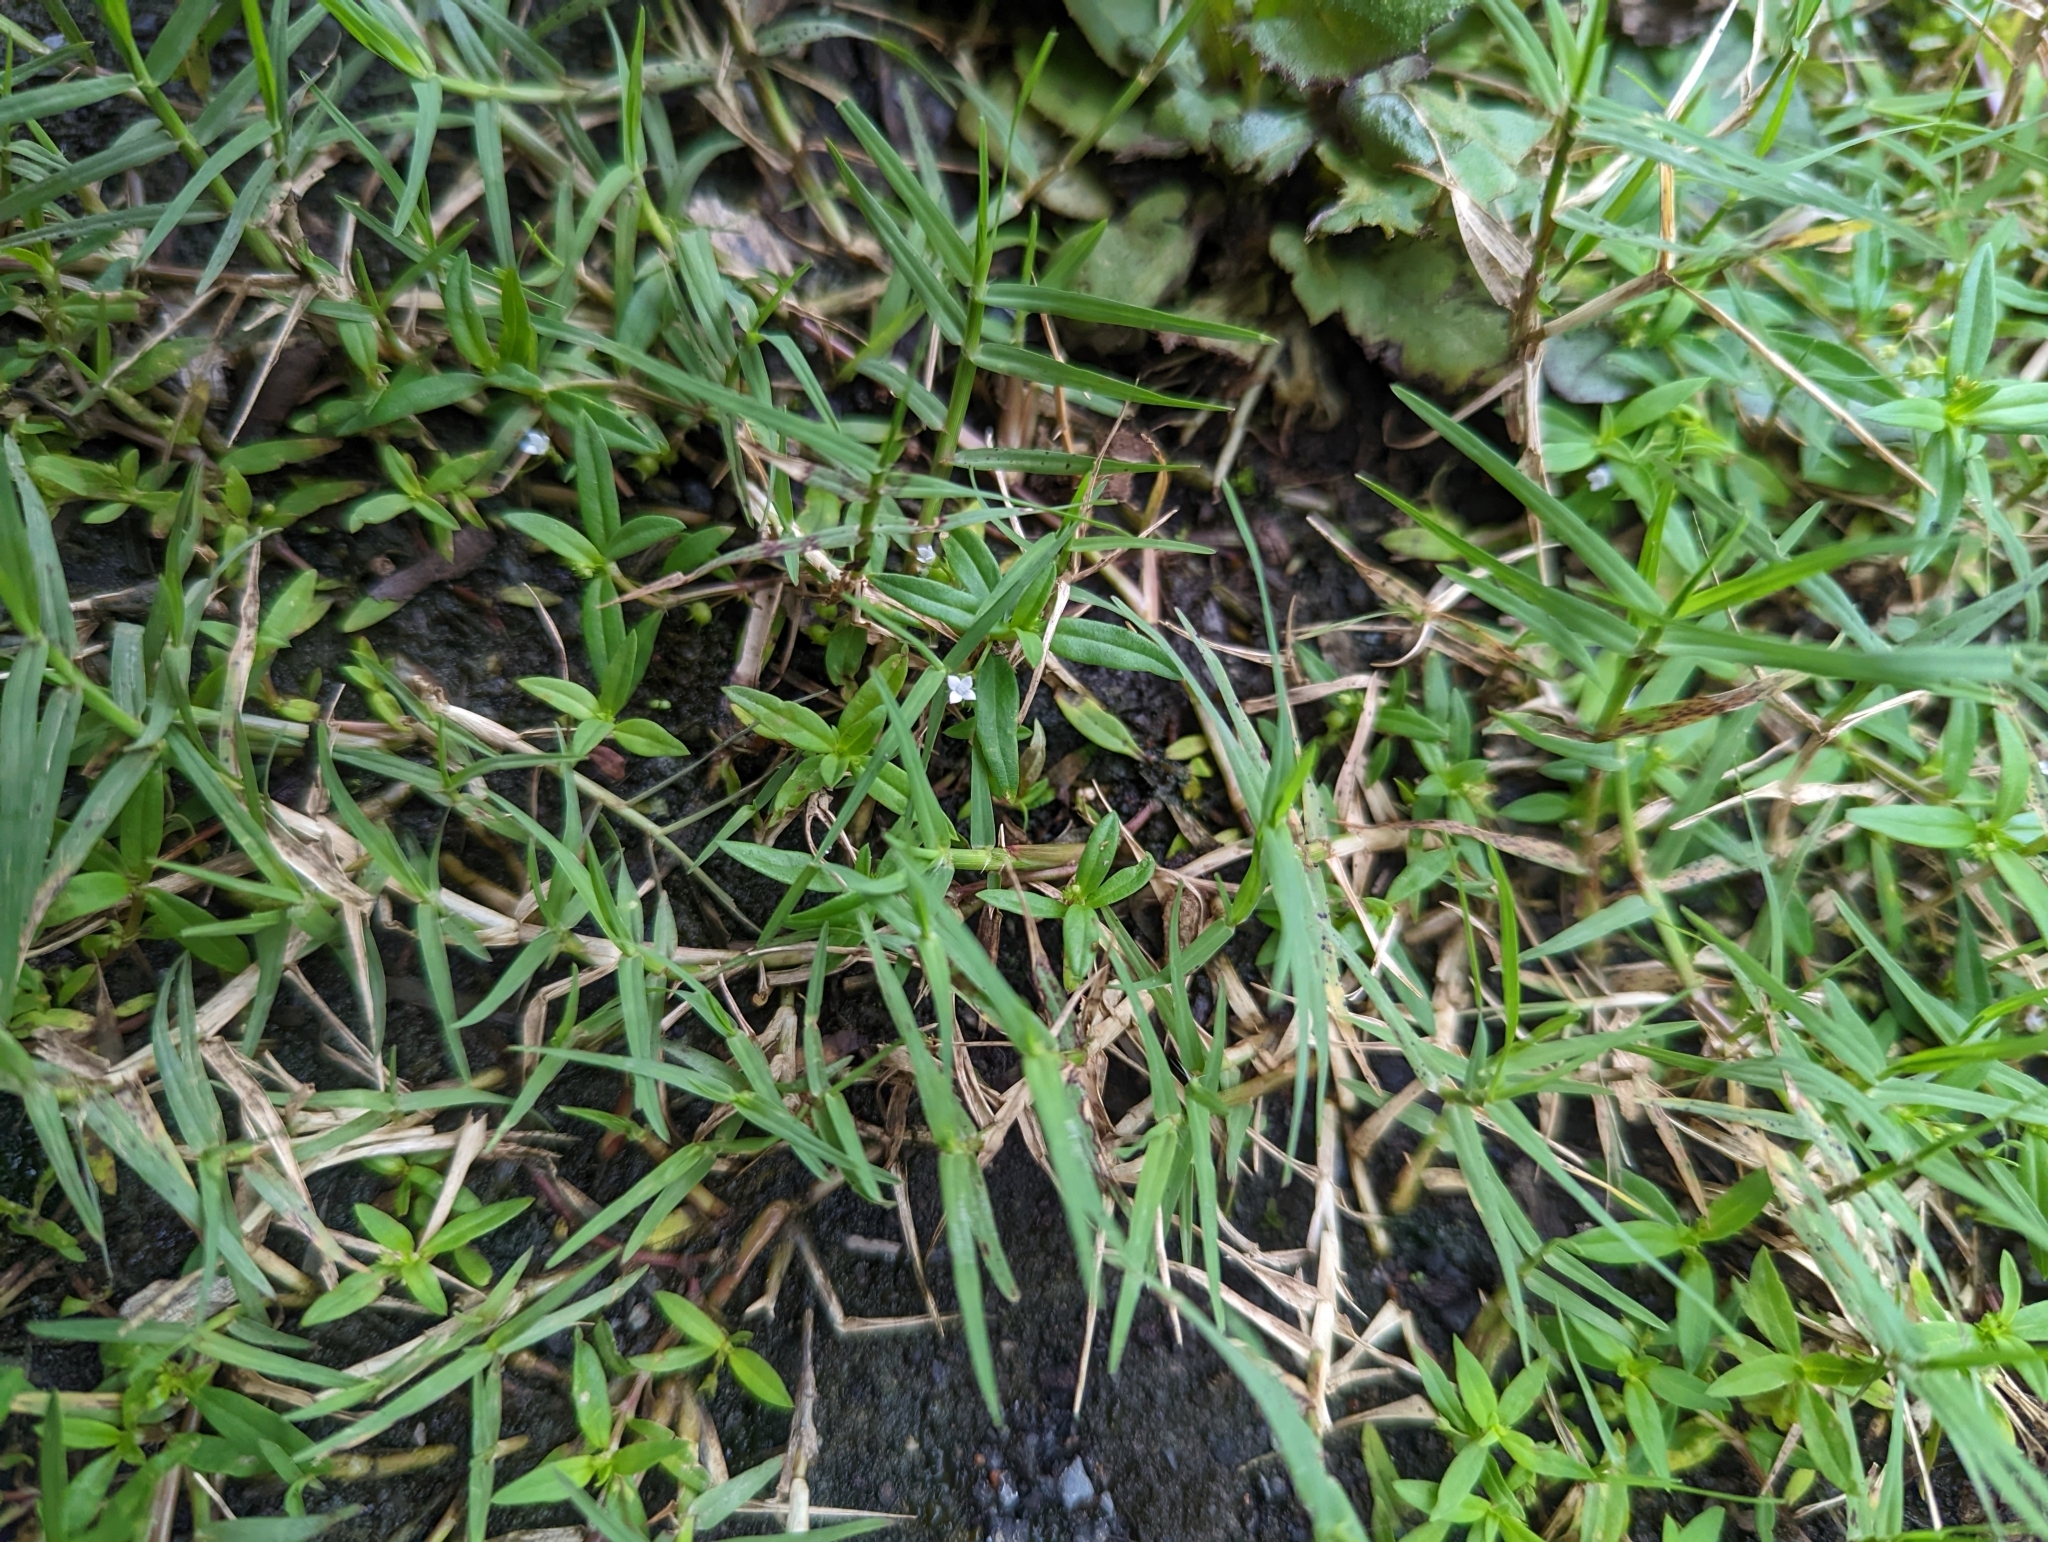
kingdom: Plantae
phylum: Tracheophyta
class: Magnoliopsida
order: Gentianales
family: Rubiaceae
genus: Oldenlandia
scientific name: Oldenlandia corymbosa
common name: Flat-top mille graines
